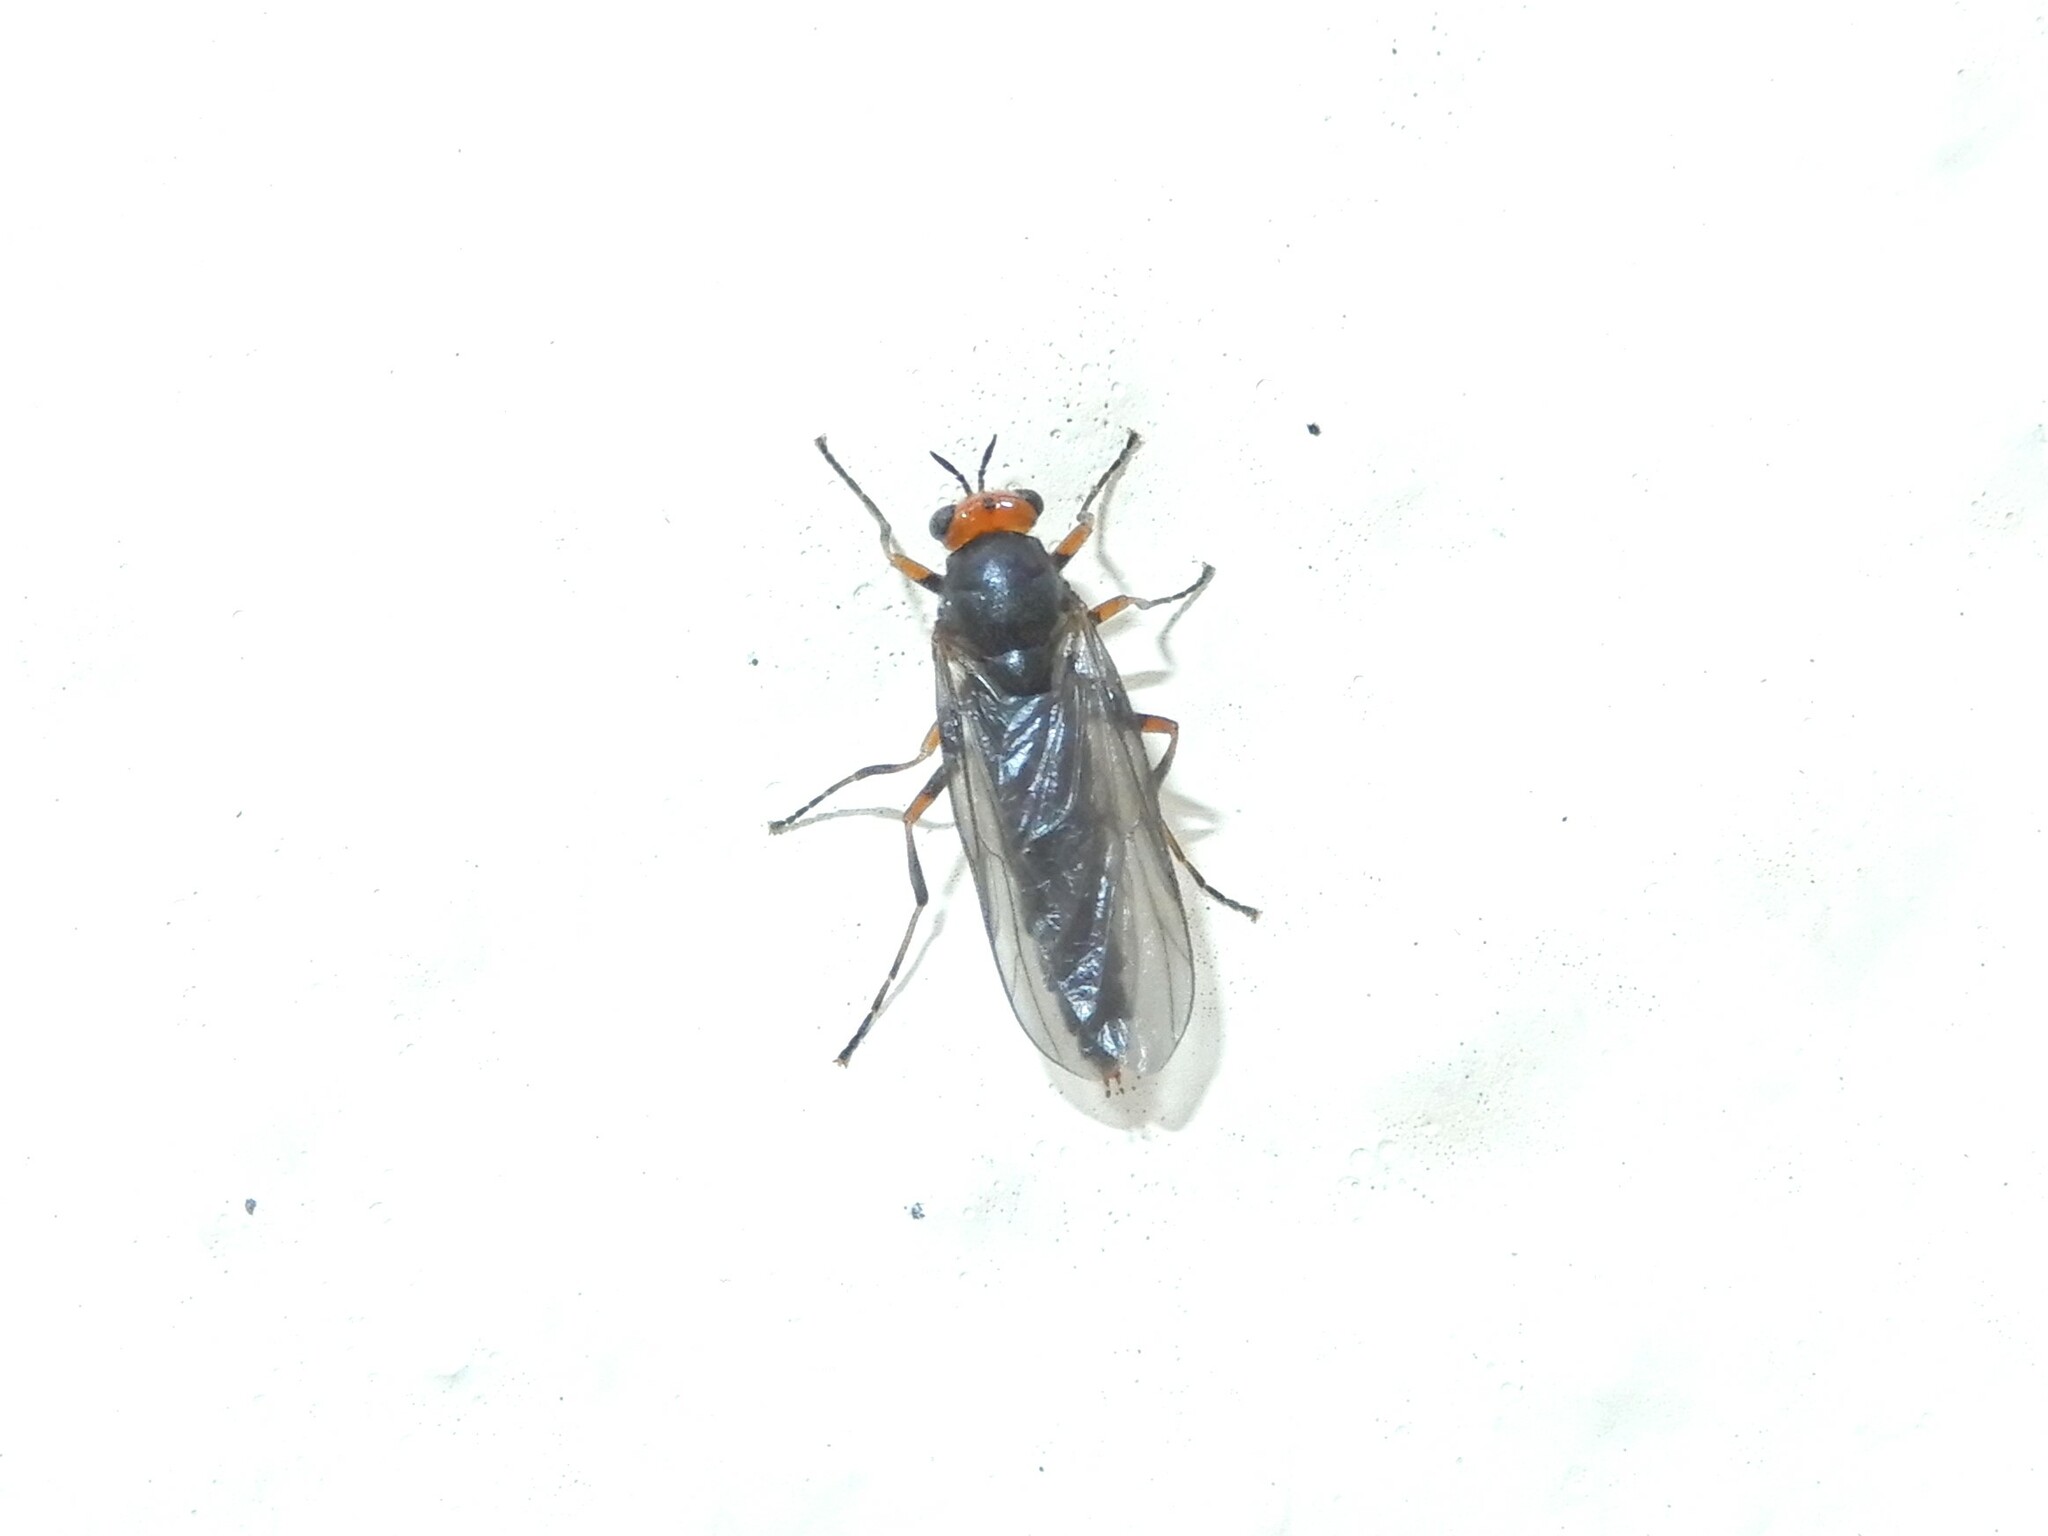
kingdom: Animalia
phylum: Arthropoda
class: Insecta
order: Diptera
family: Stratiomyidae
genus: Inopus
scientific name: Inopus rubriceps
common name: Soldier fly
